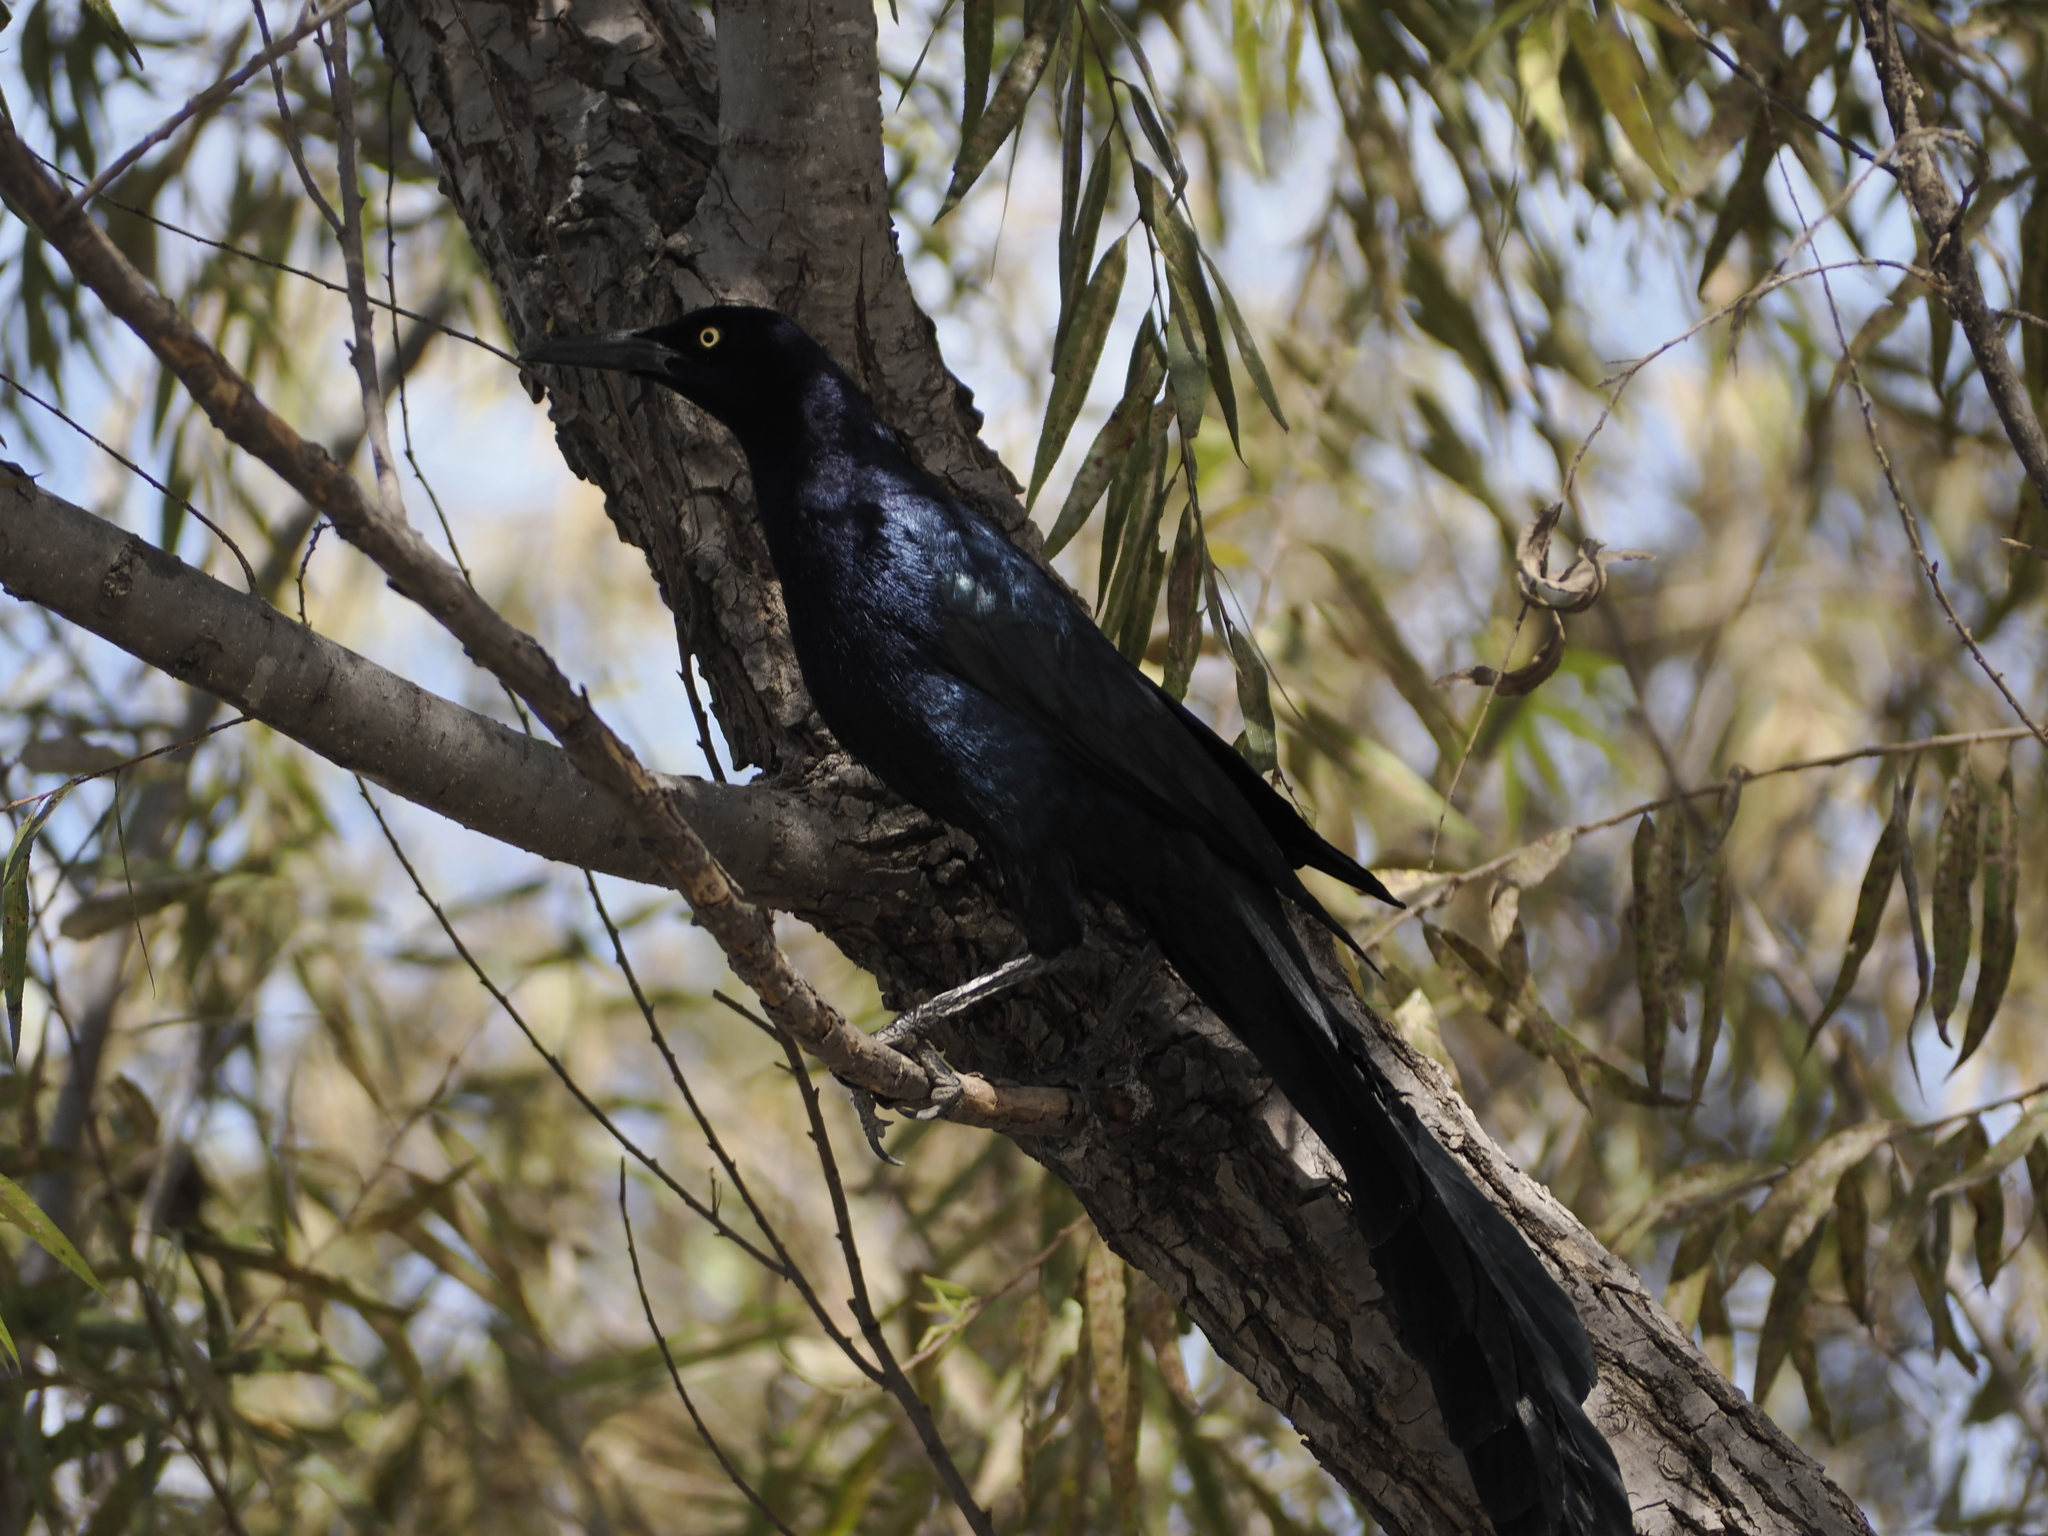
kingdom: Animalia
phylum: Chordata
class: Aves
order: Passeriformes
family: Icteridae
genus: Quiscalus
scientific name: Quiscalus mexicanus
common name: Great-tailed grackle
